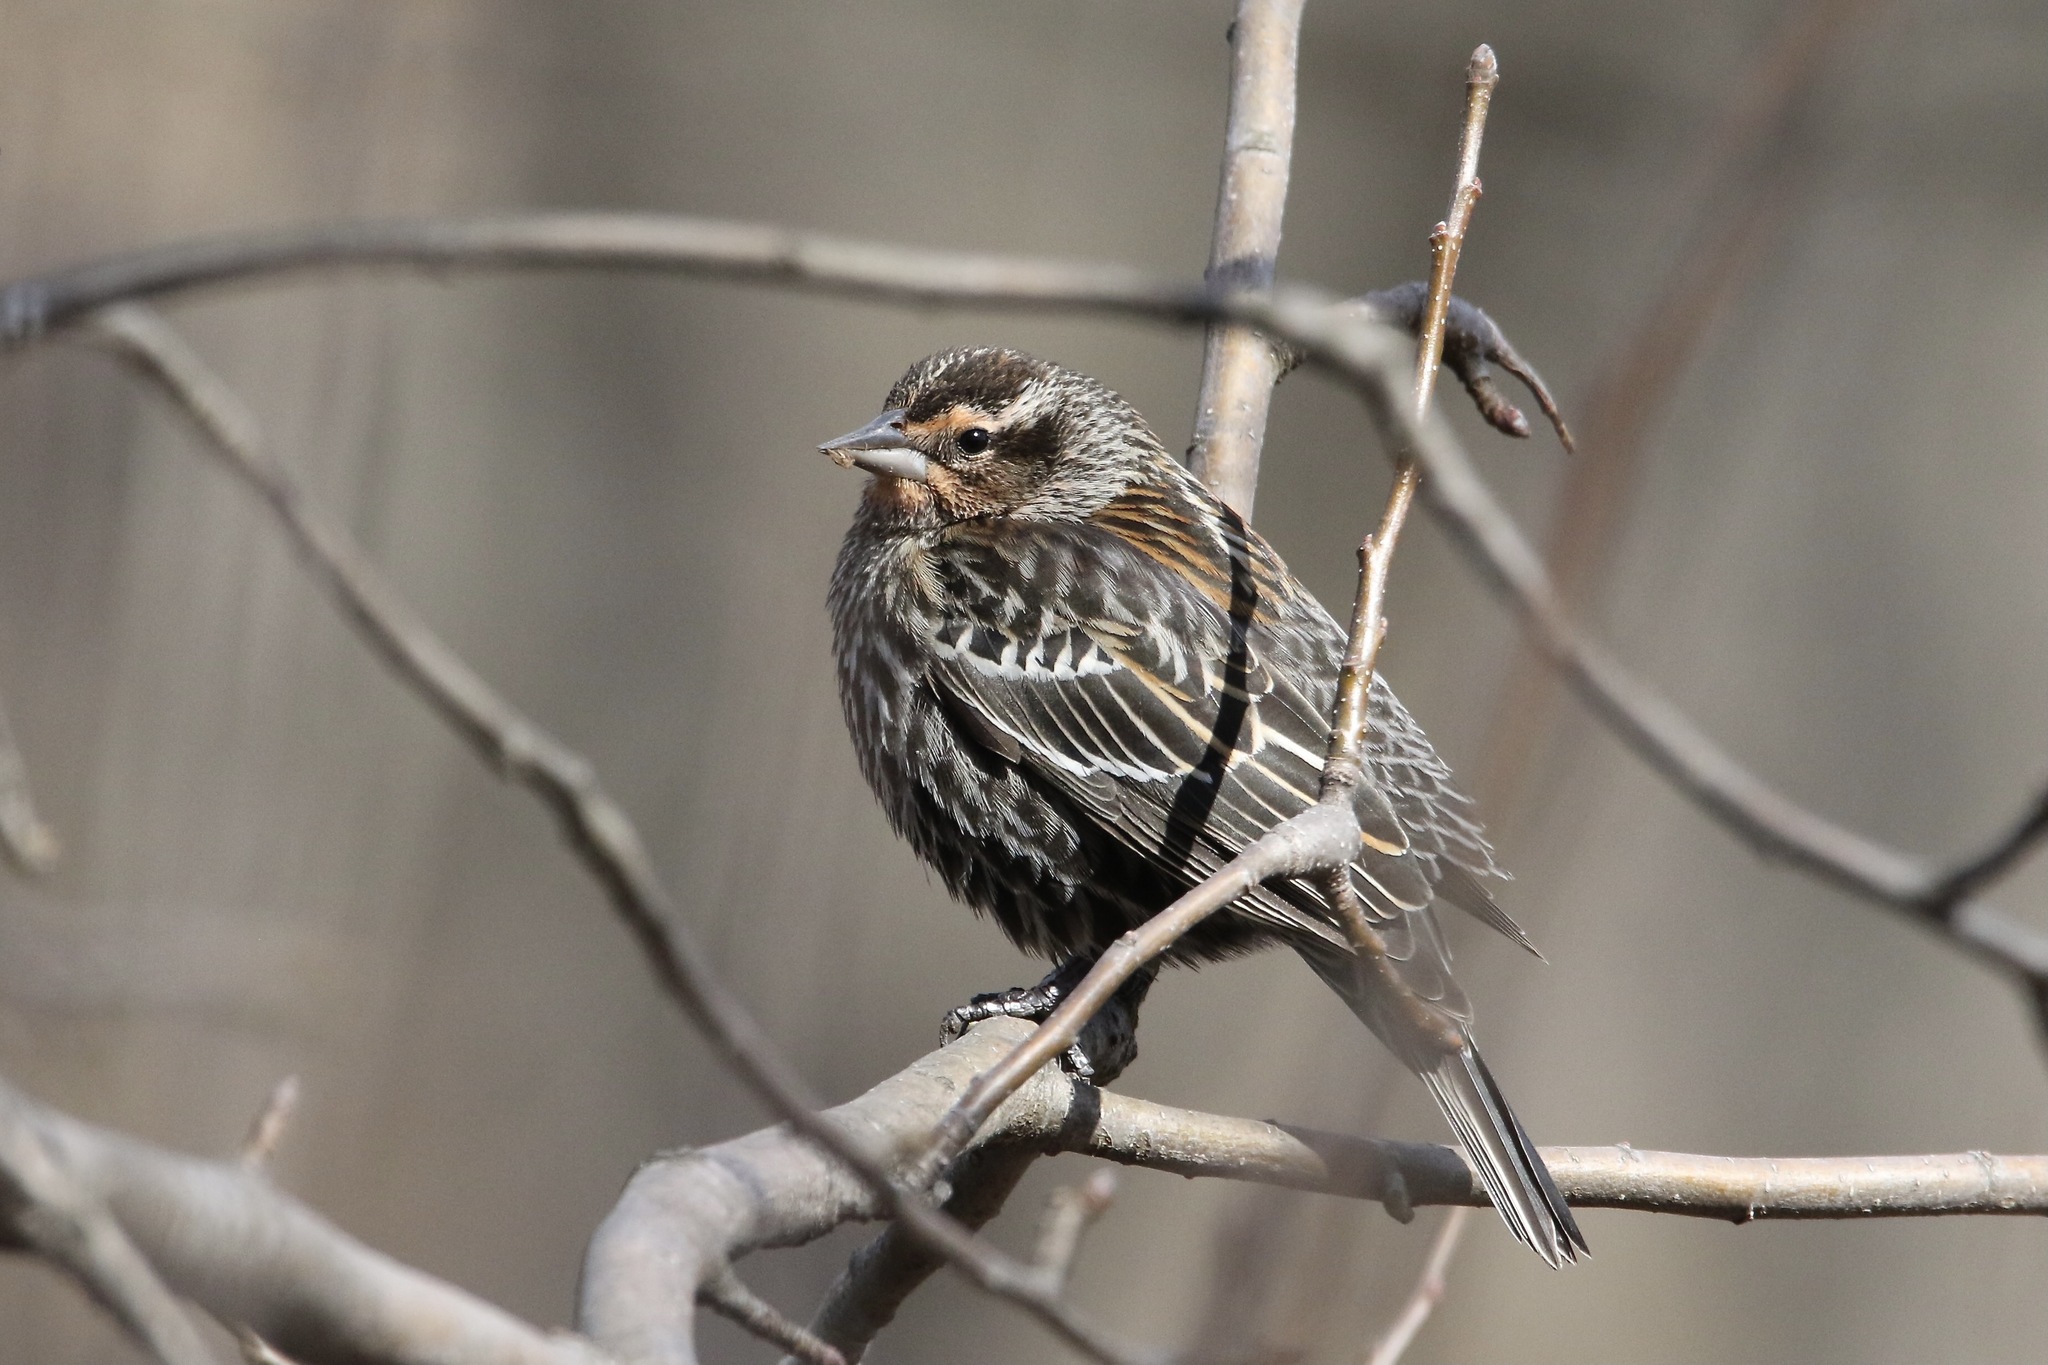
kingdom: Animalia
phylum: Chordata
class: Aves
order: Passeriformes
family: Icteridae
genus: Agelaius
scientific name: Agelaius phoeniceus
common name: Red-winged blackbird
